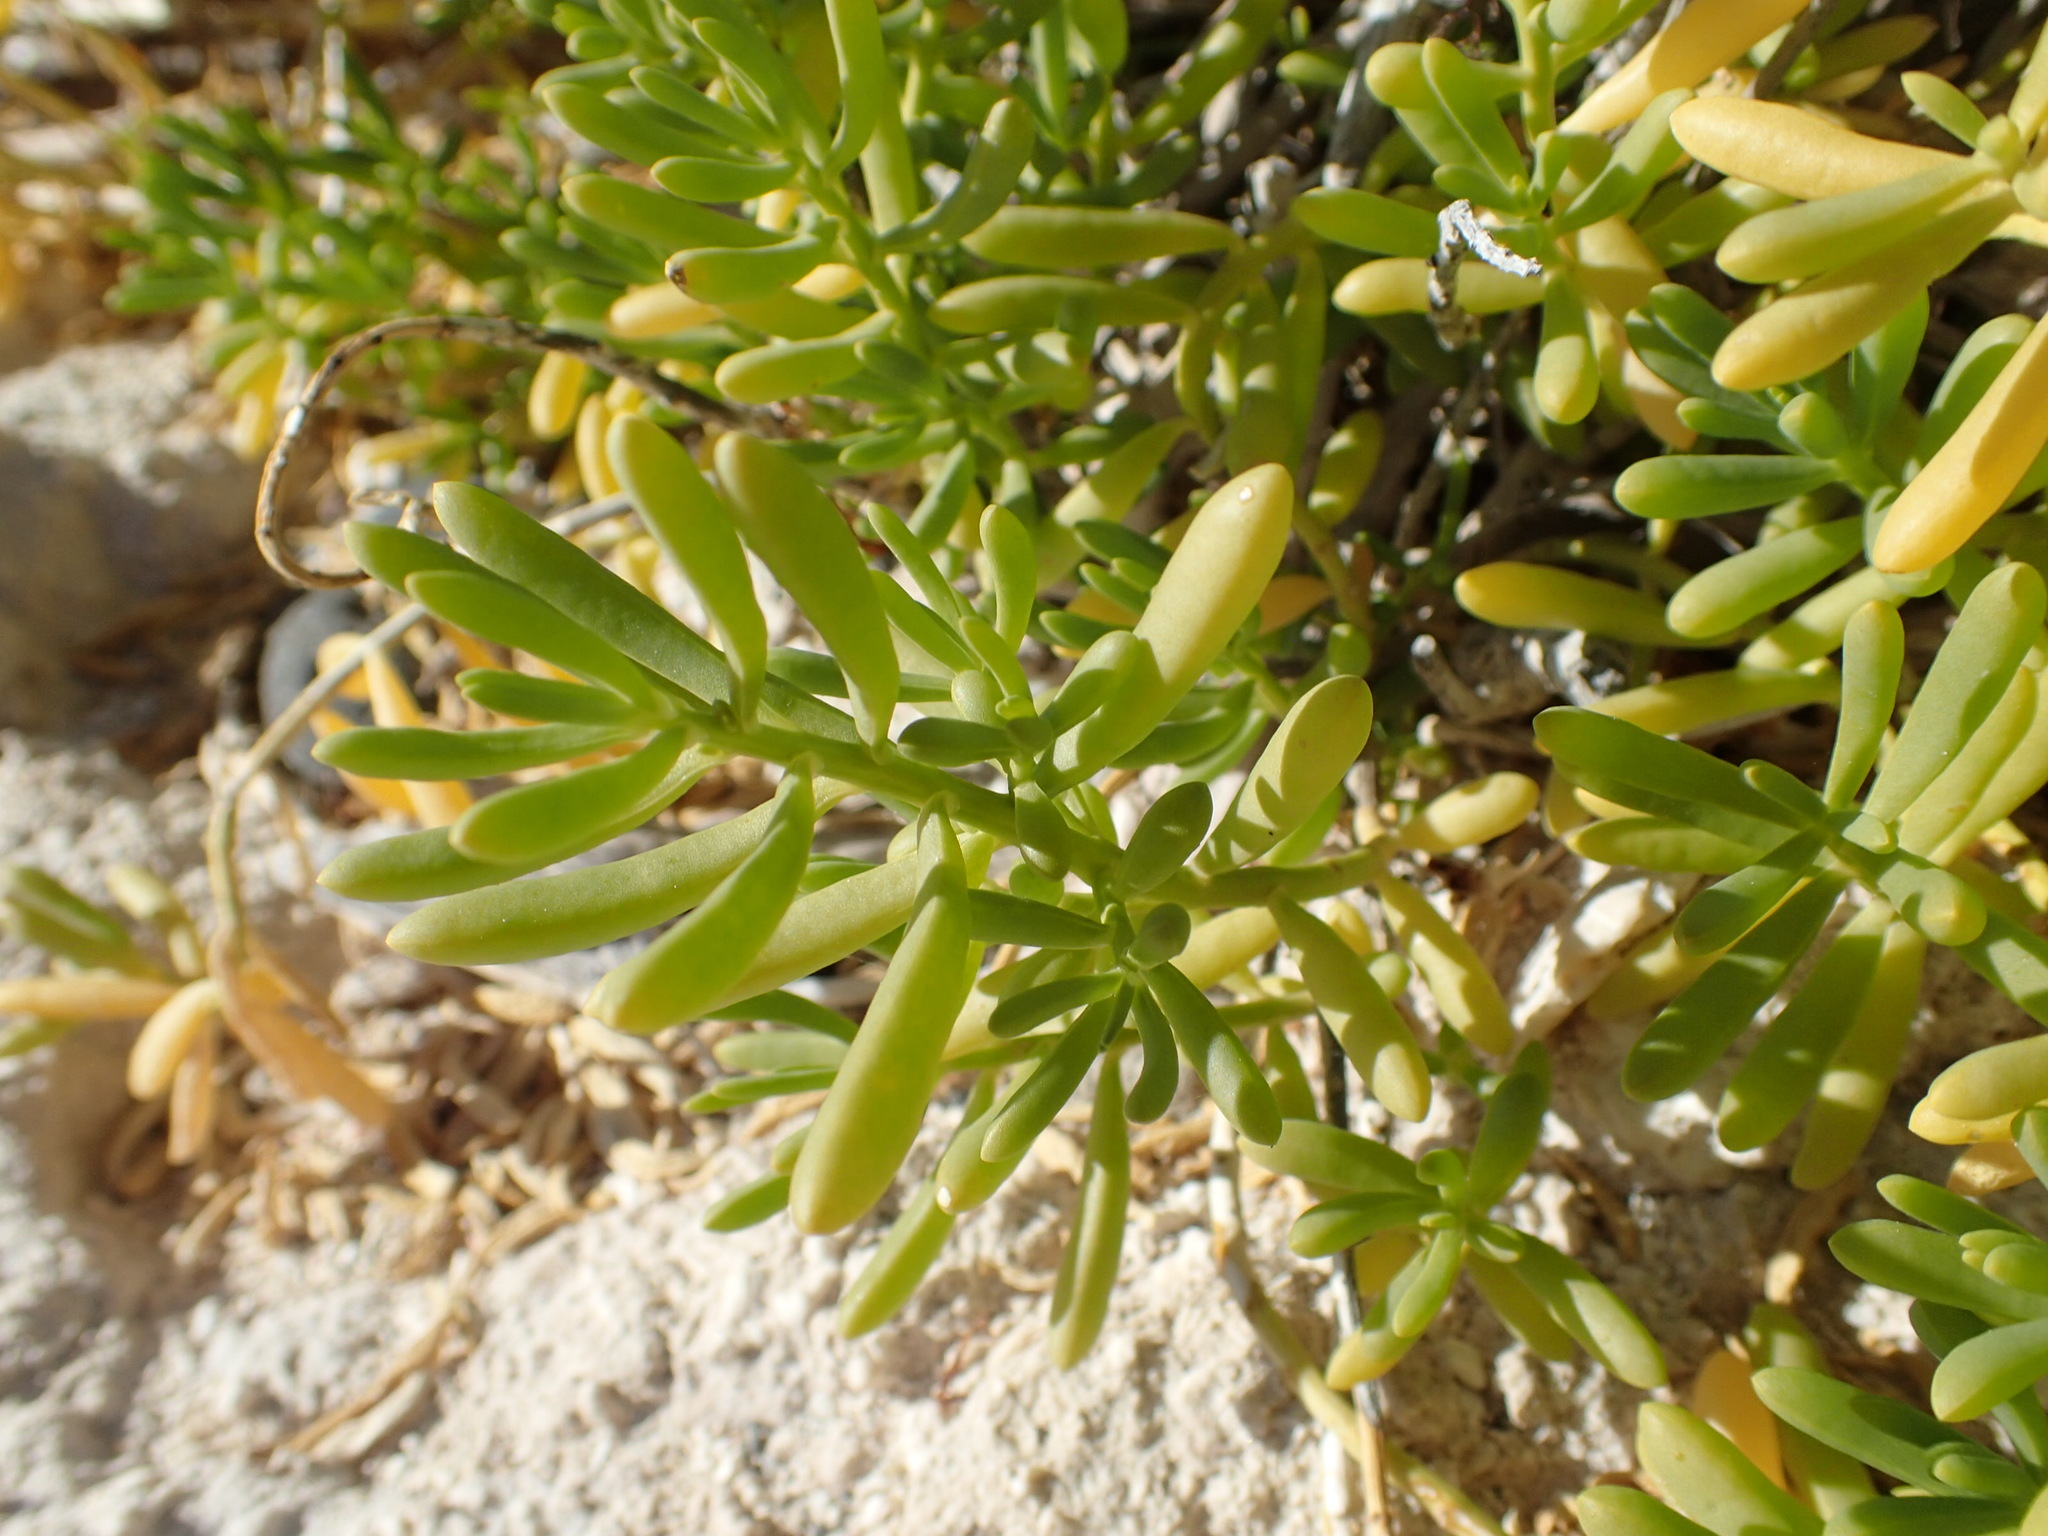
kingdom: Plantae
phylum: Tracheophyta
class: Magnoliopsida
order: Brassicales
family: Bataceae
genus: Batis
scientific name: Batis maritima
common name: Turtleweed
